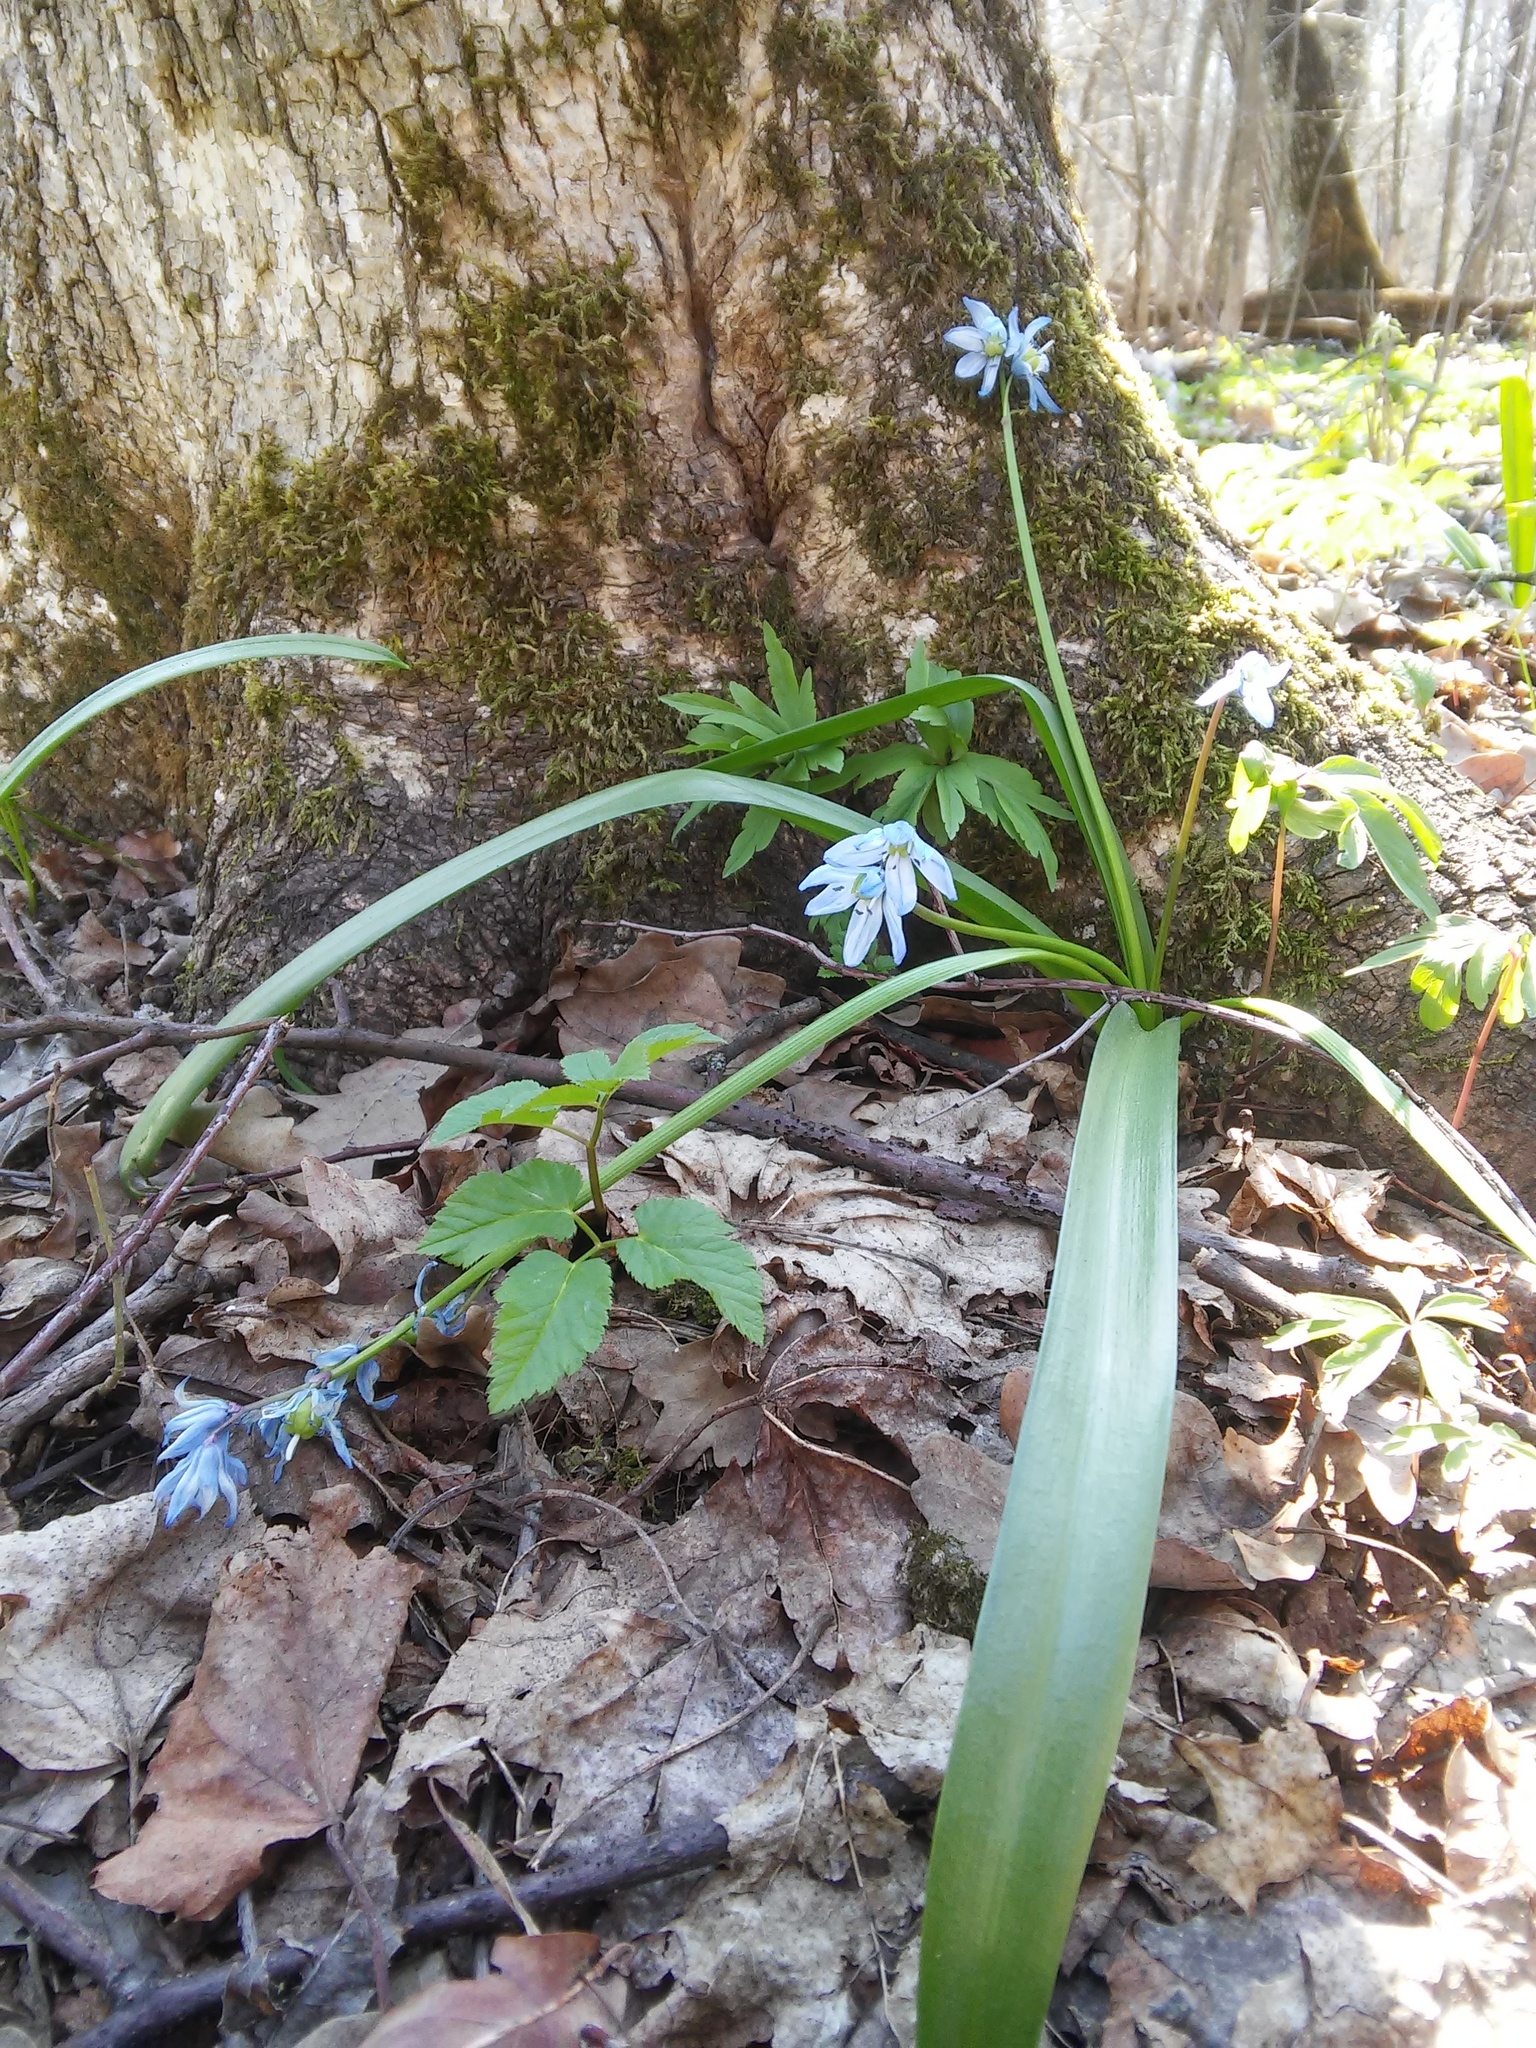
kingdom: Plantae
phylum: Tracheophyta
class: Liliopsida
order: Asparagales
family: Asparagaceae
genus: Scilla
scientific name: Scilla siberica
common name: Siberian squill
